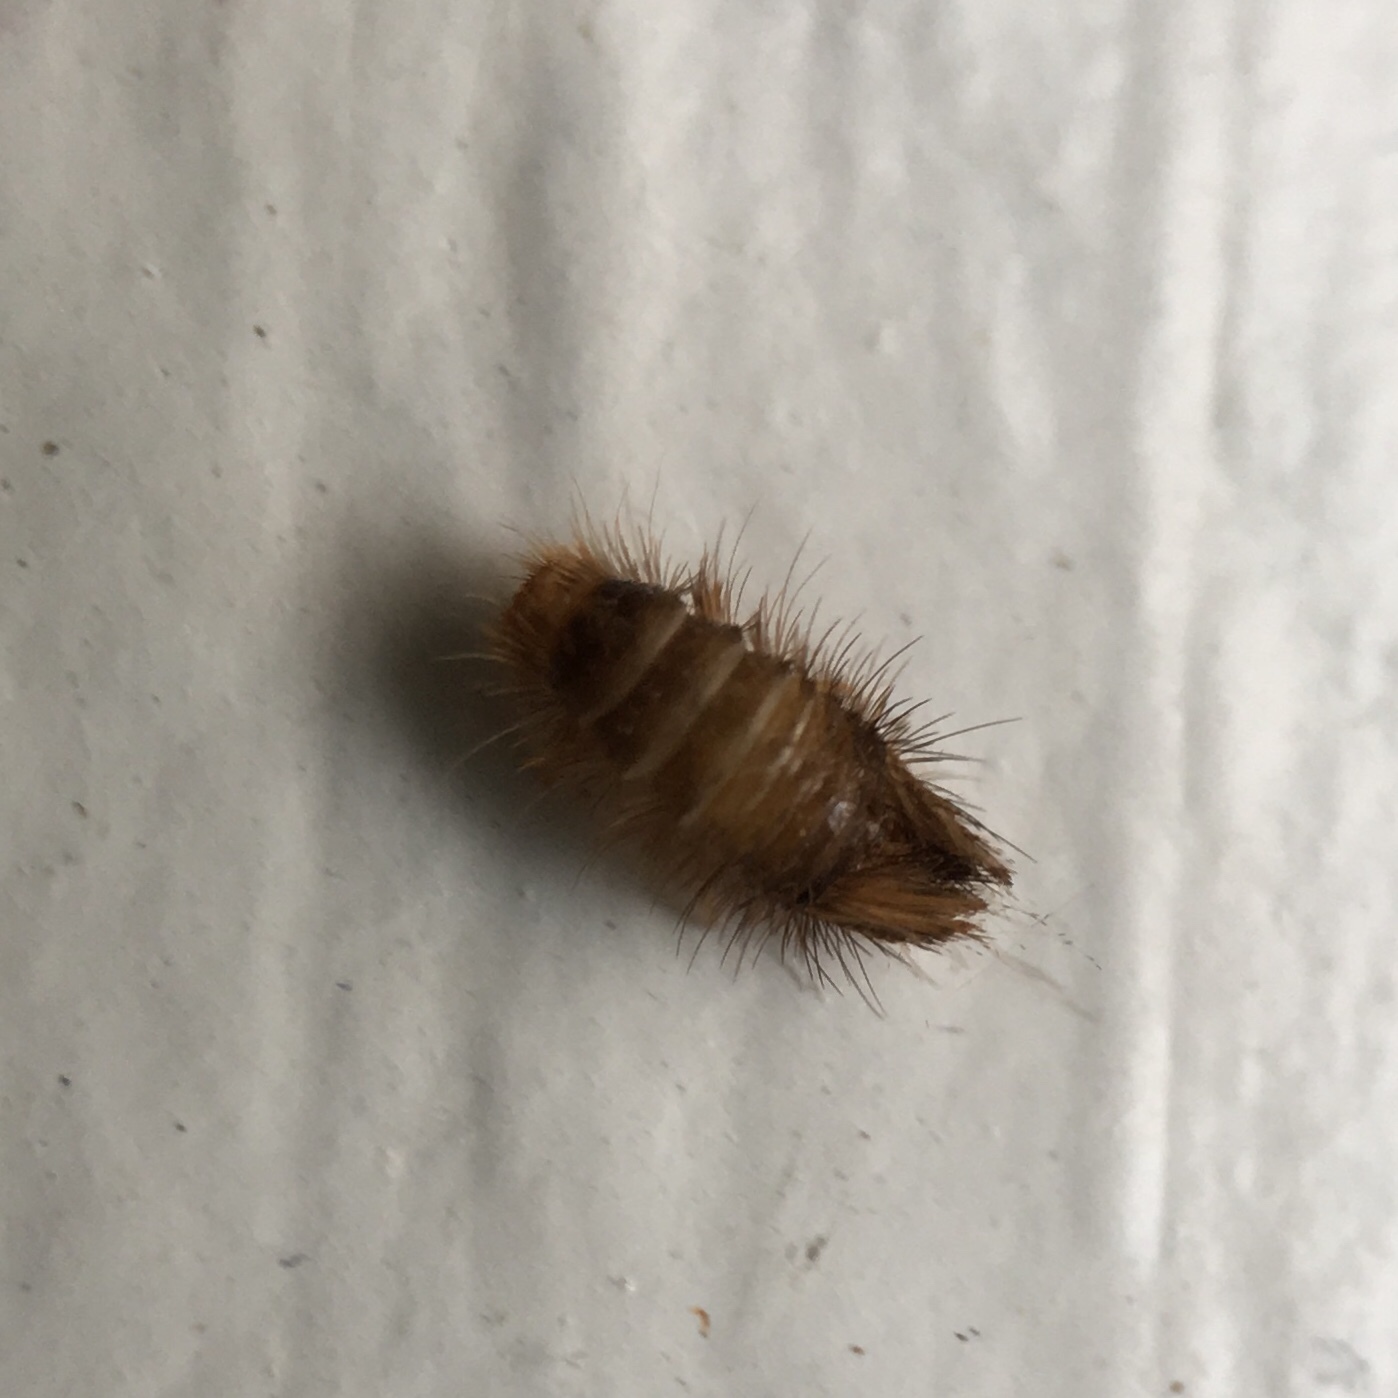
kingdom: Animalia
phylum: Arthropoda
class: Insecta
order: Coleoptera
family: Dermestidae
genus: Anthrenus
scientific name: Anthrenus verbasci
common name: Varied carpet beetle
